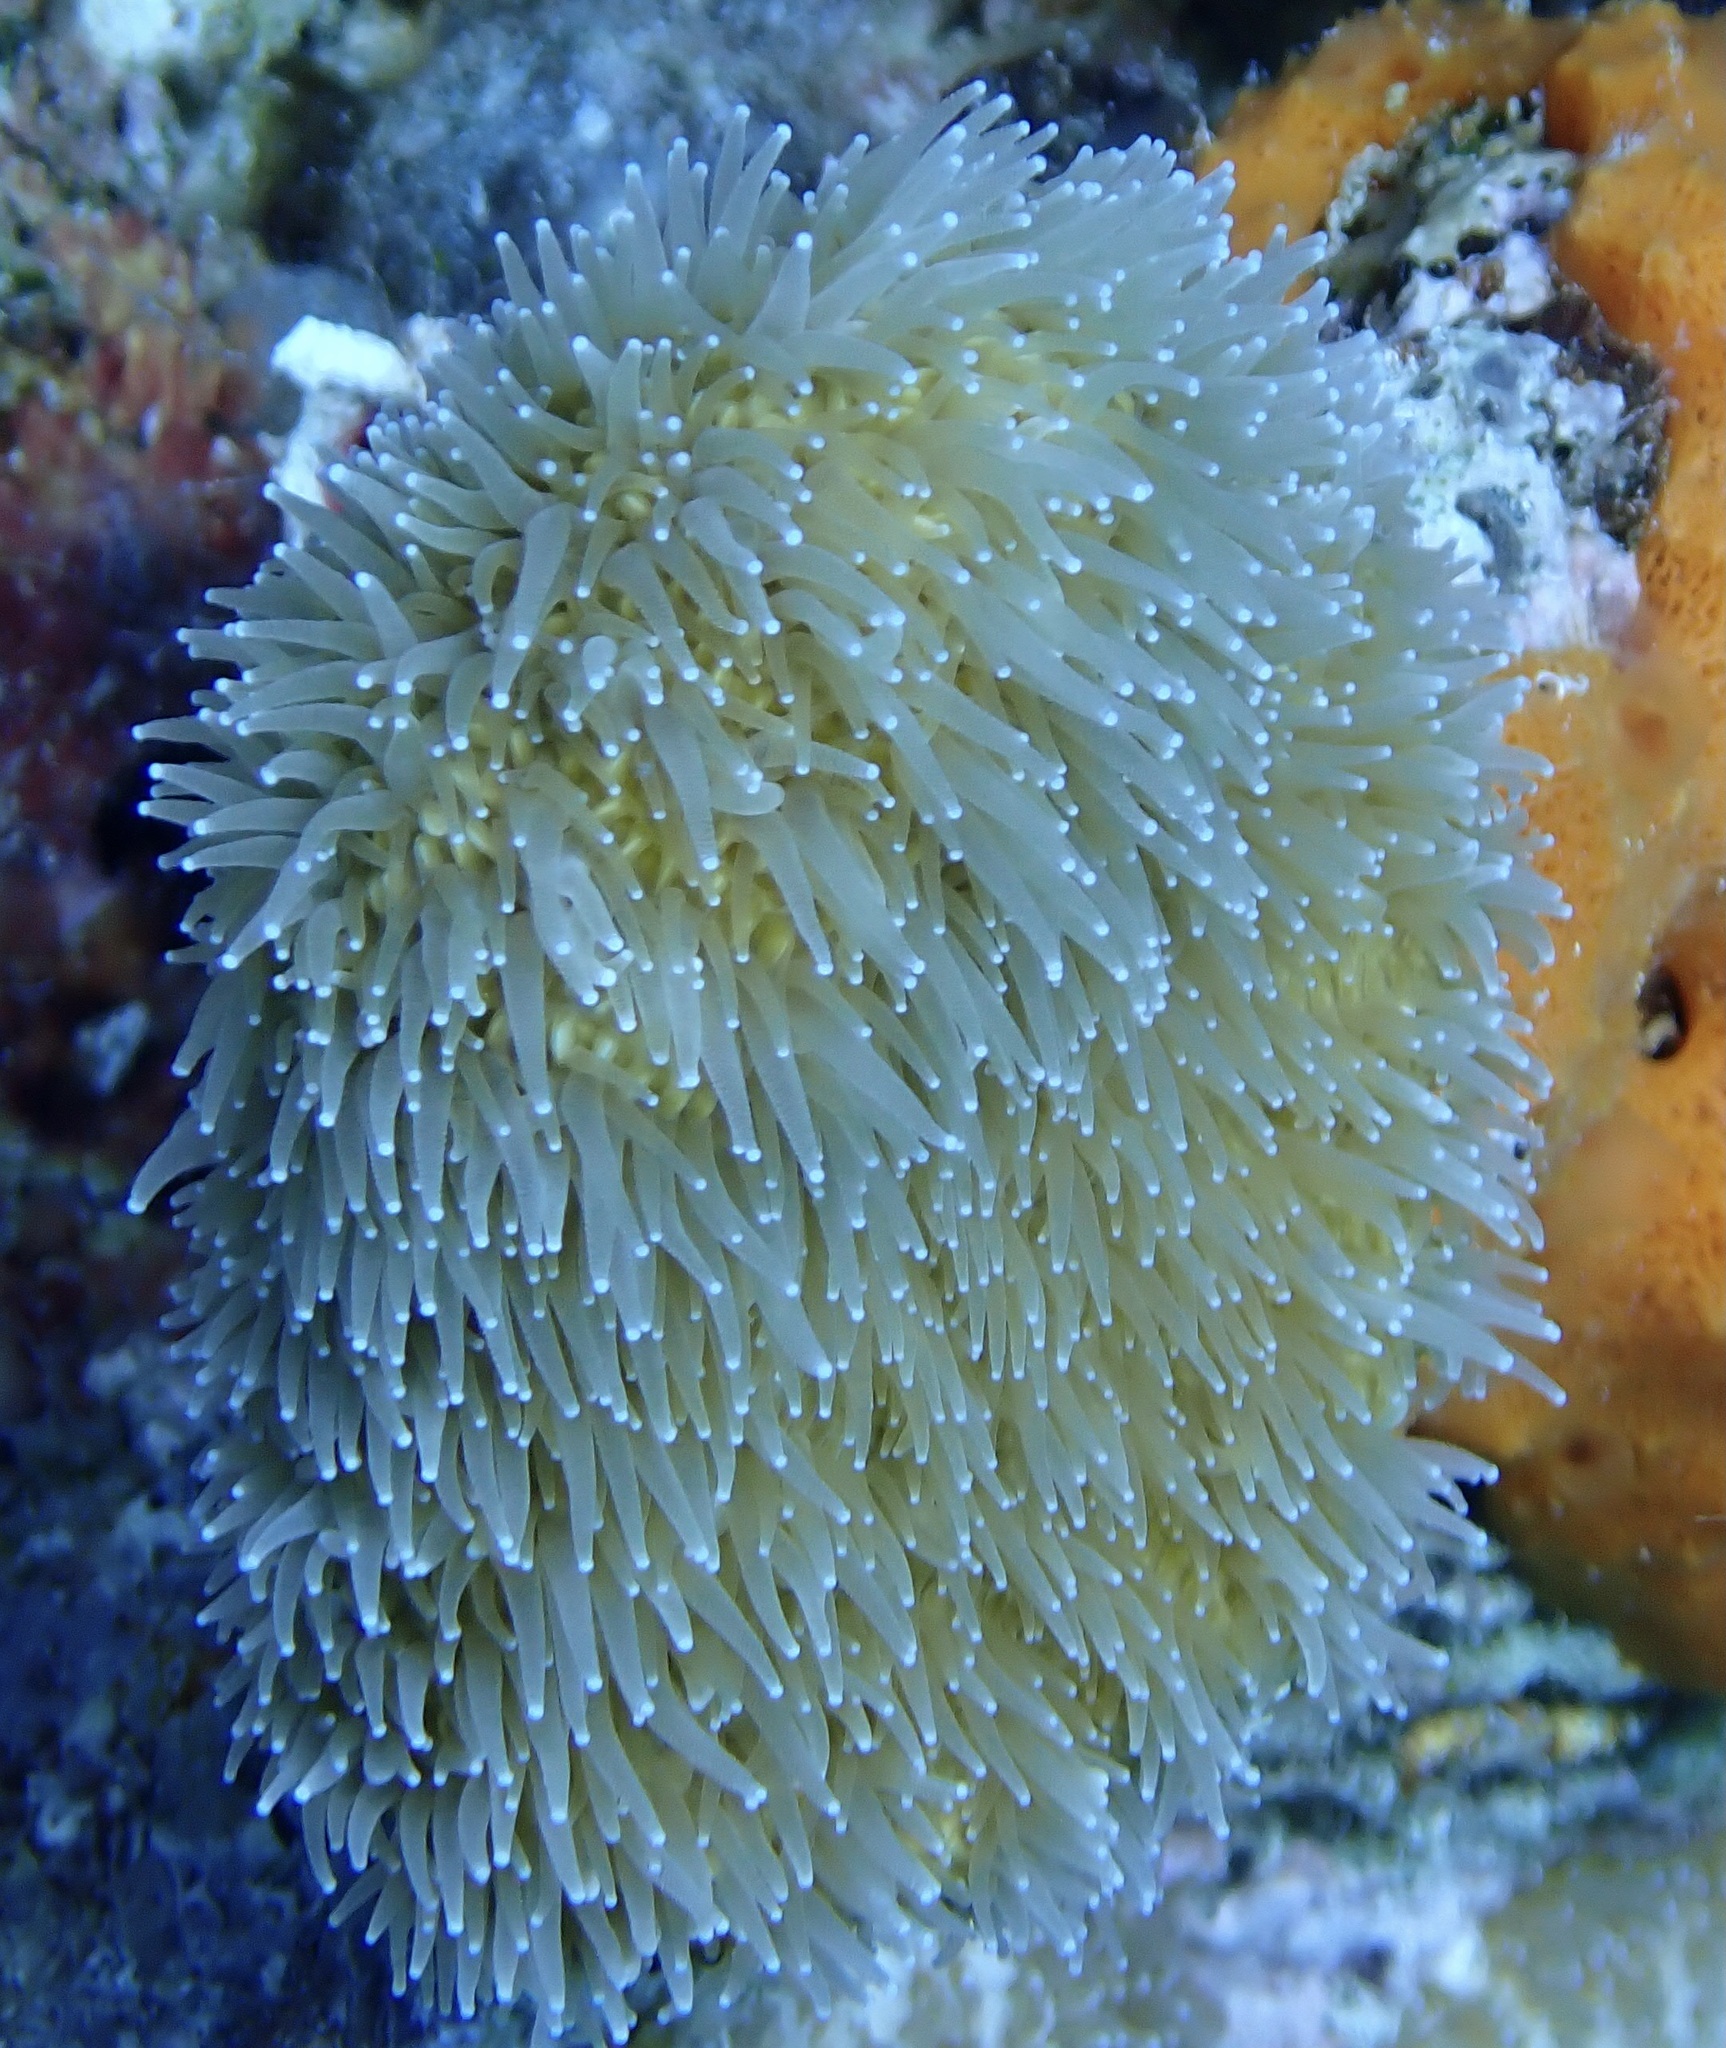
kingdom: Animalia
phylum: Cnidaria
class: Anthozoa
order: Scleractinia
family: Meandrinidae
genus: Dendrogyra
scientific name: Dendrogyra cylindrus
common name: Pillar coral
